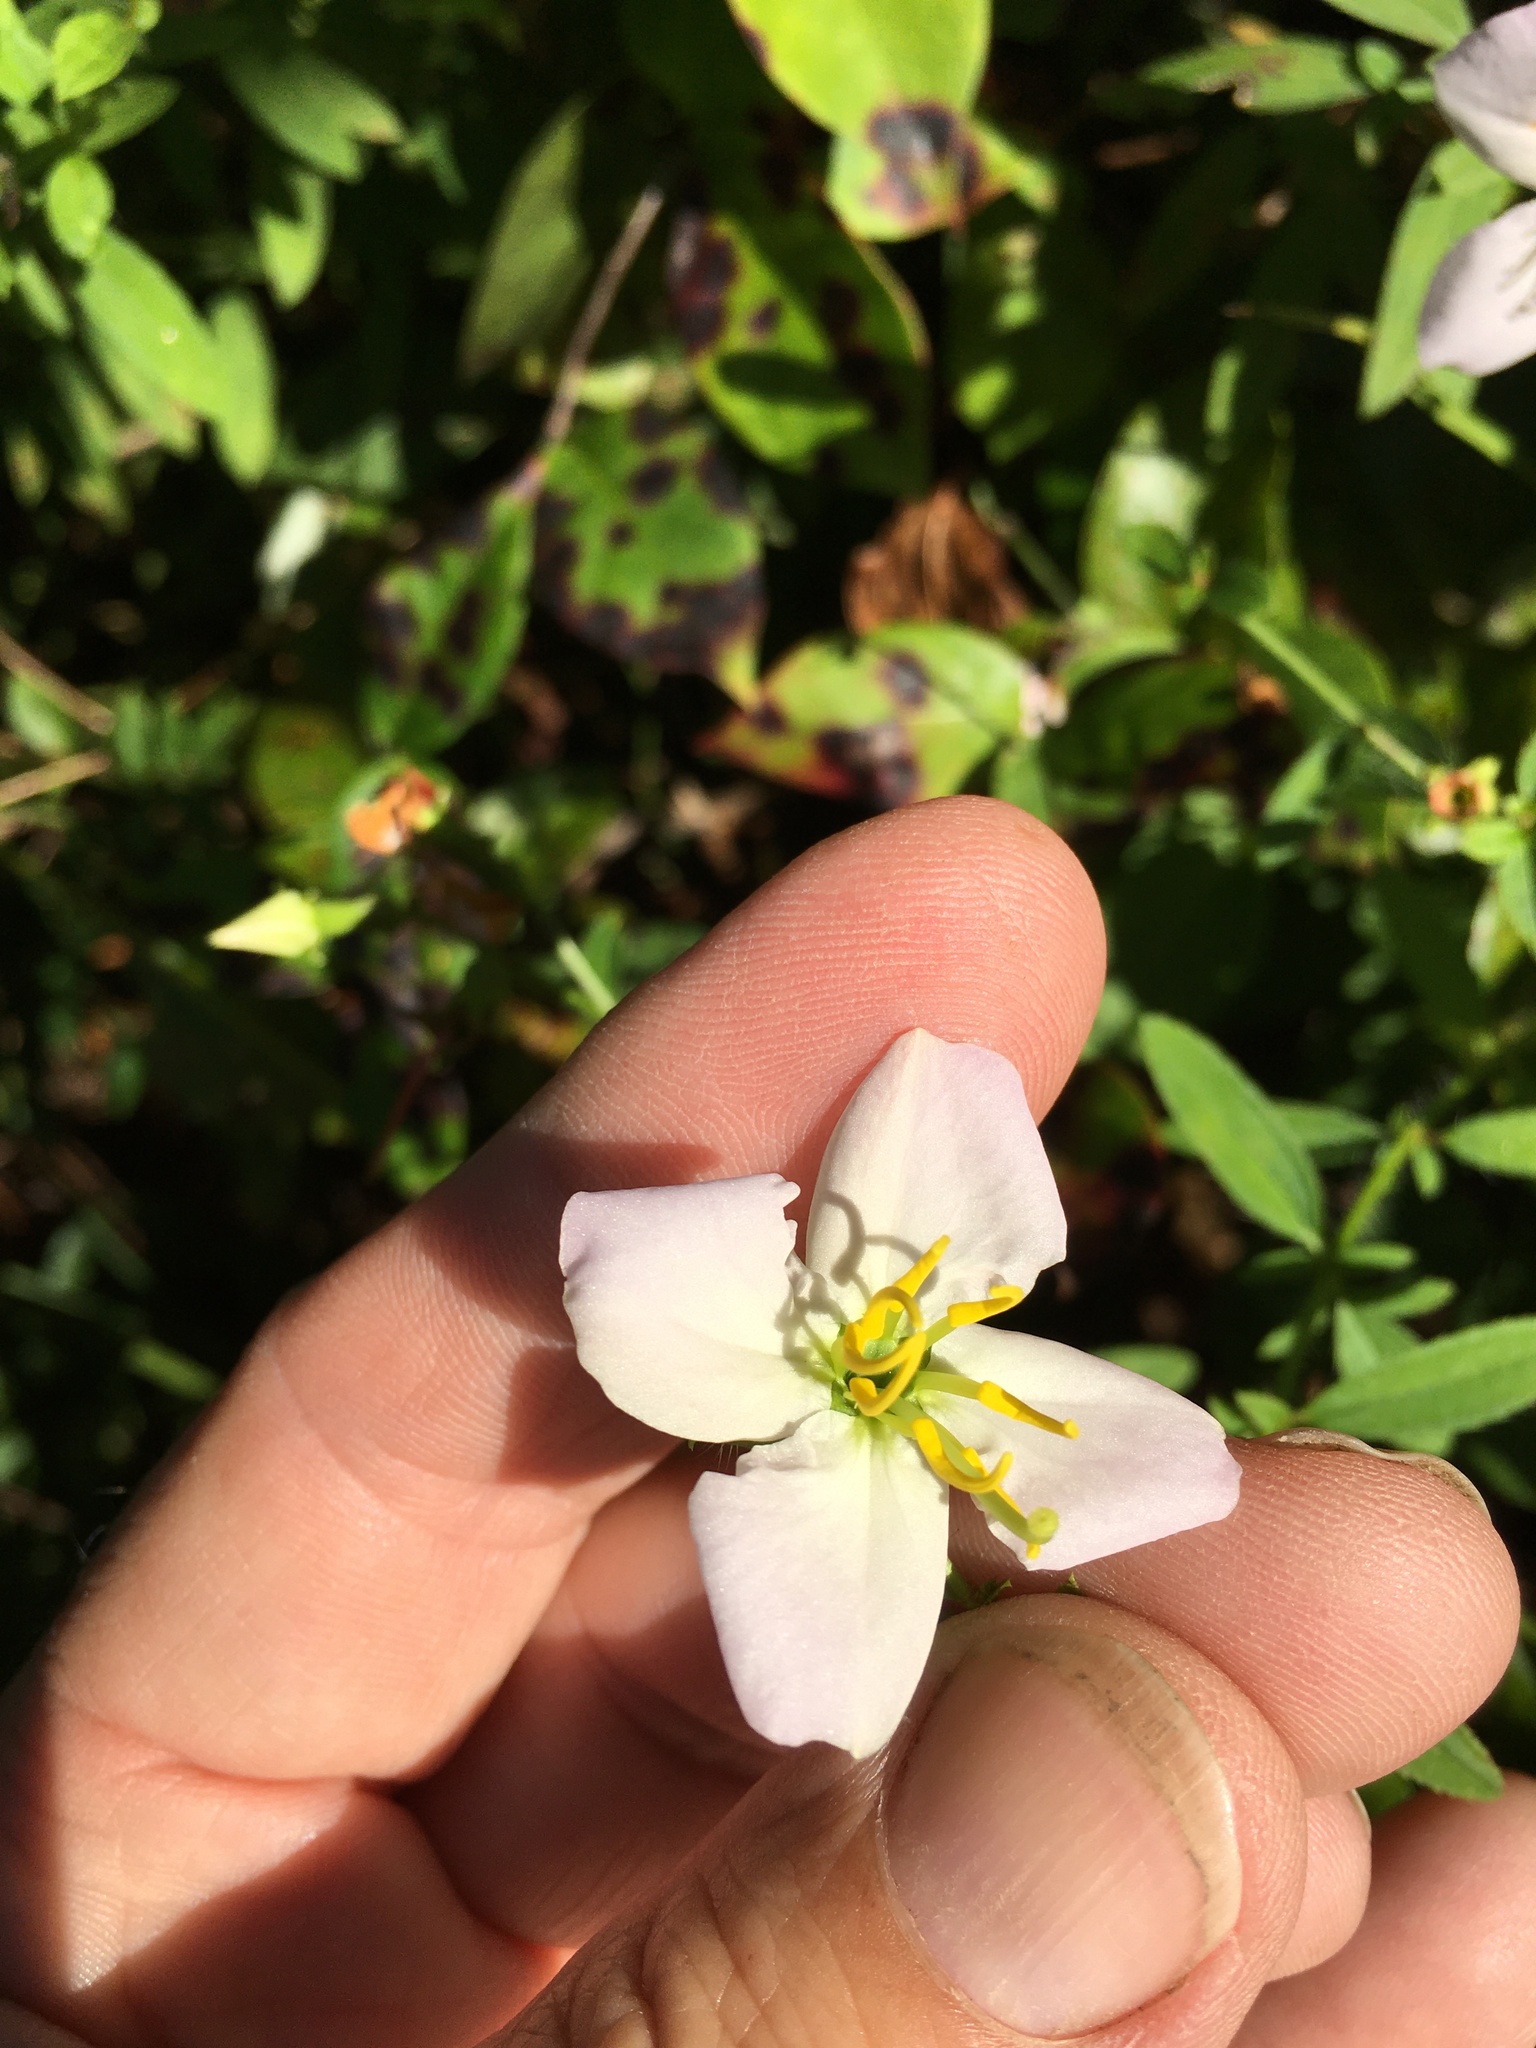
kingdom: Plantae
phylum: Tracheophyta
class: Magnoliopsida
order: Myrtales
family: Melastomataceae
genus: Rhexia
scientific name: Rhexia mariana
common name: Dull meadow-pitcher
